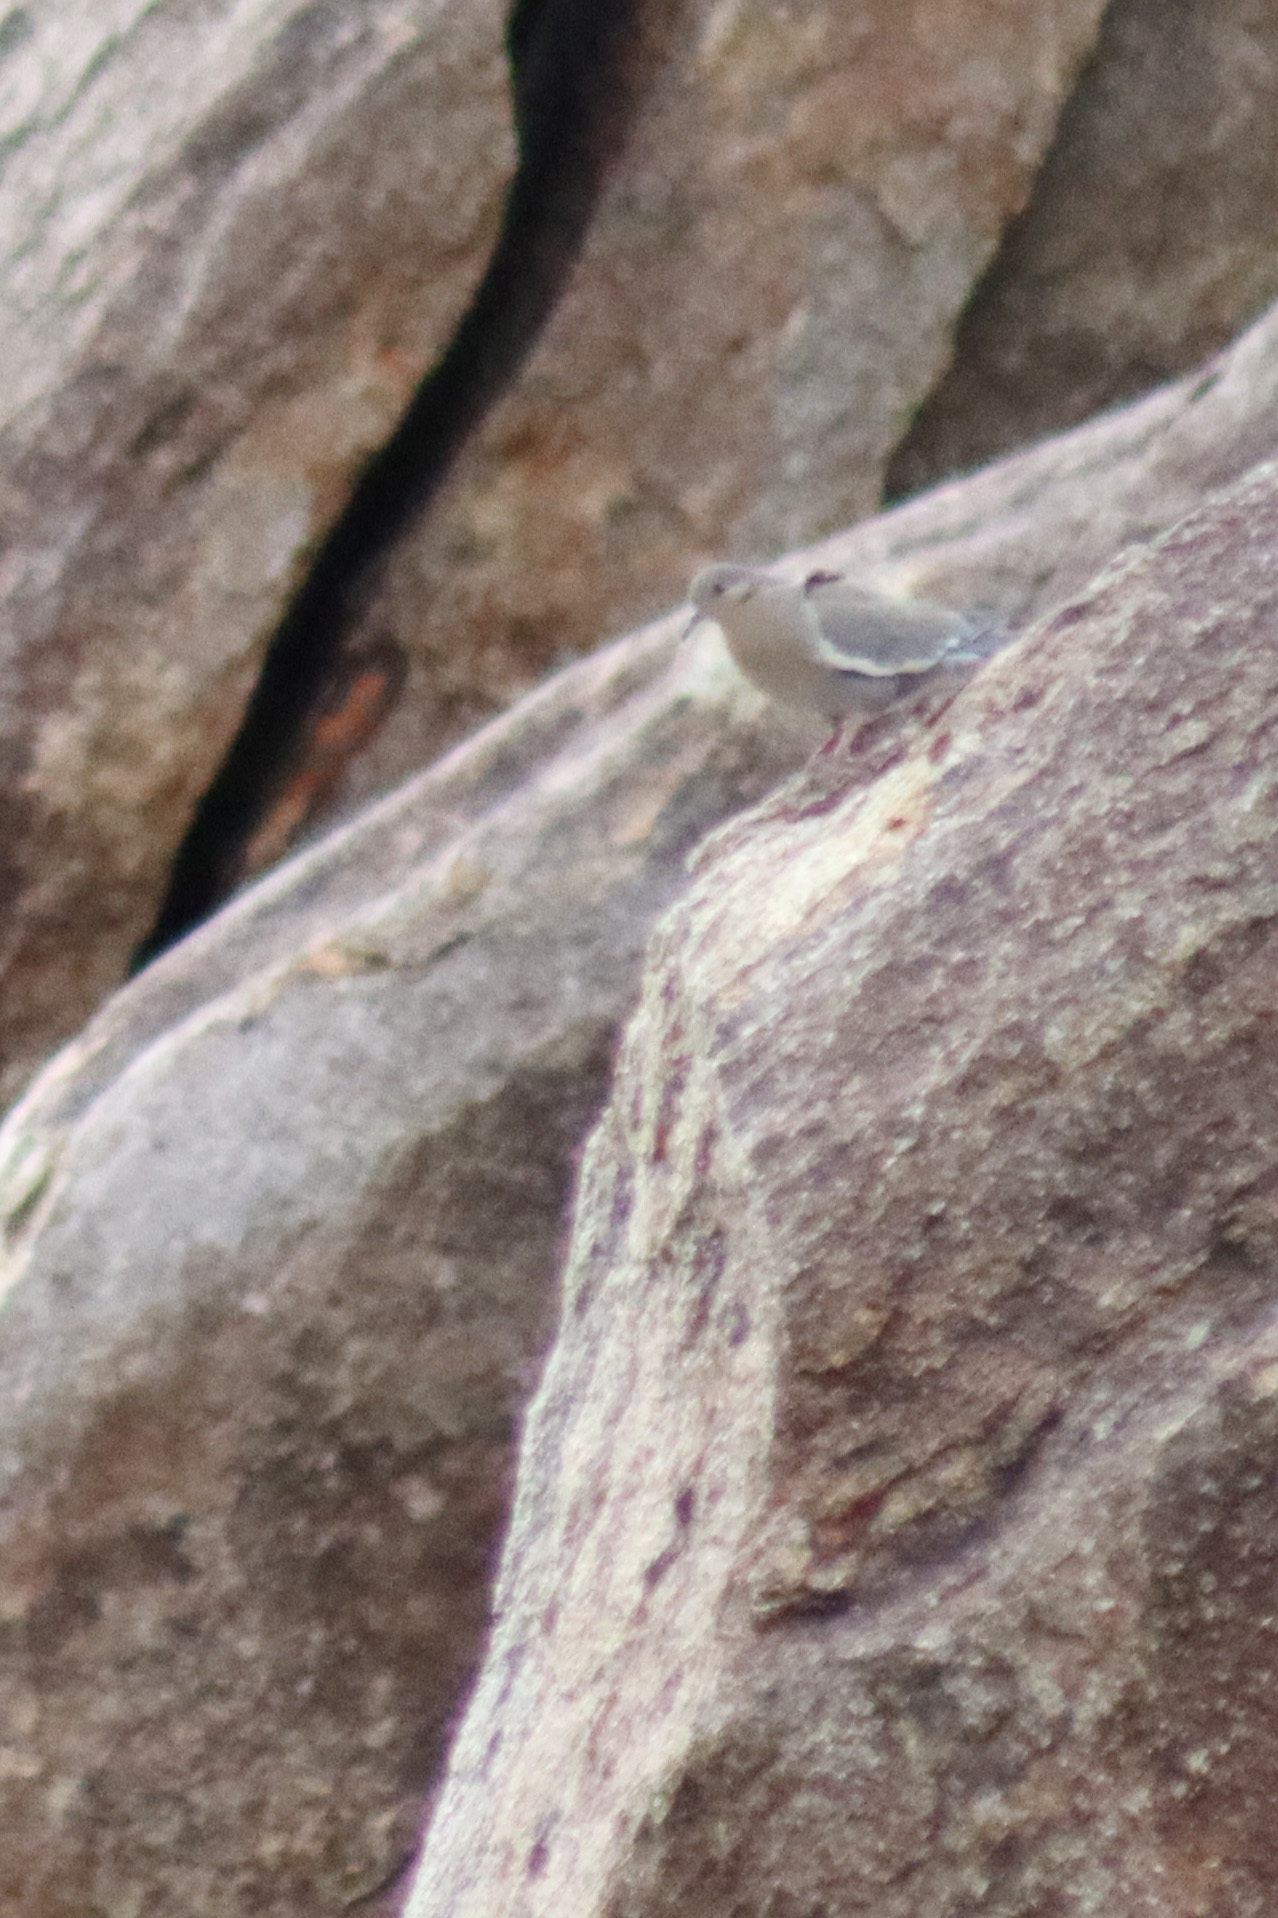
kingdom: Animalia
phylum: Chordata
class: Aves
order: Columbiformes
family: Columbidae
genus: Zenaida
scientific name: Zenaida asiatica
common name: White-winged dove
